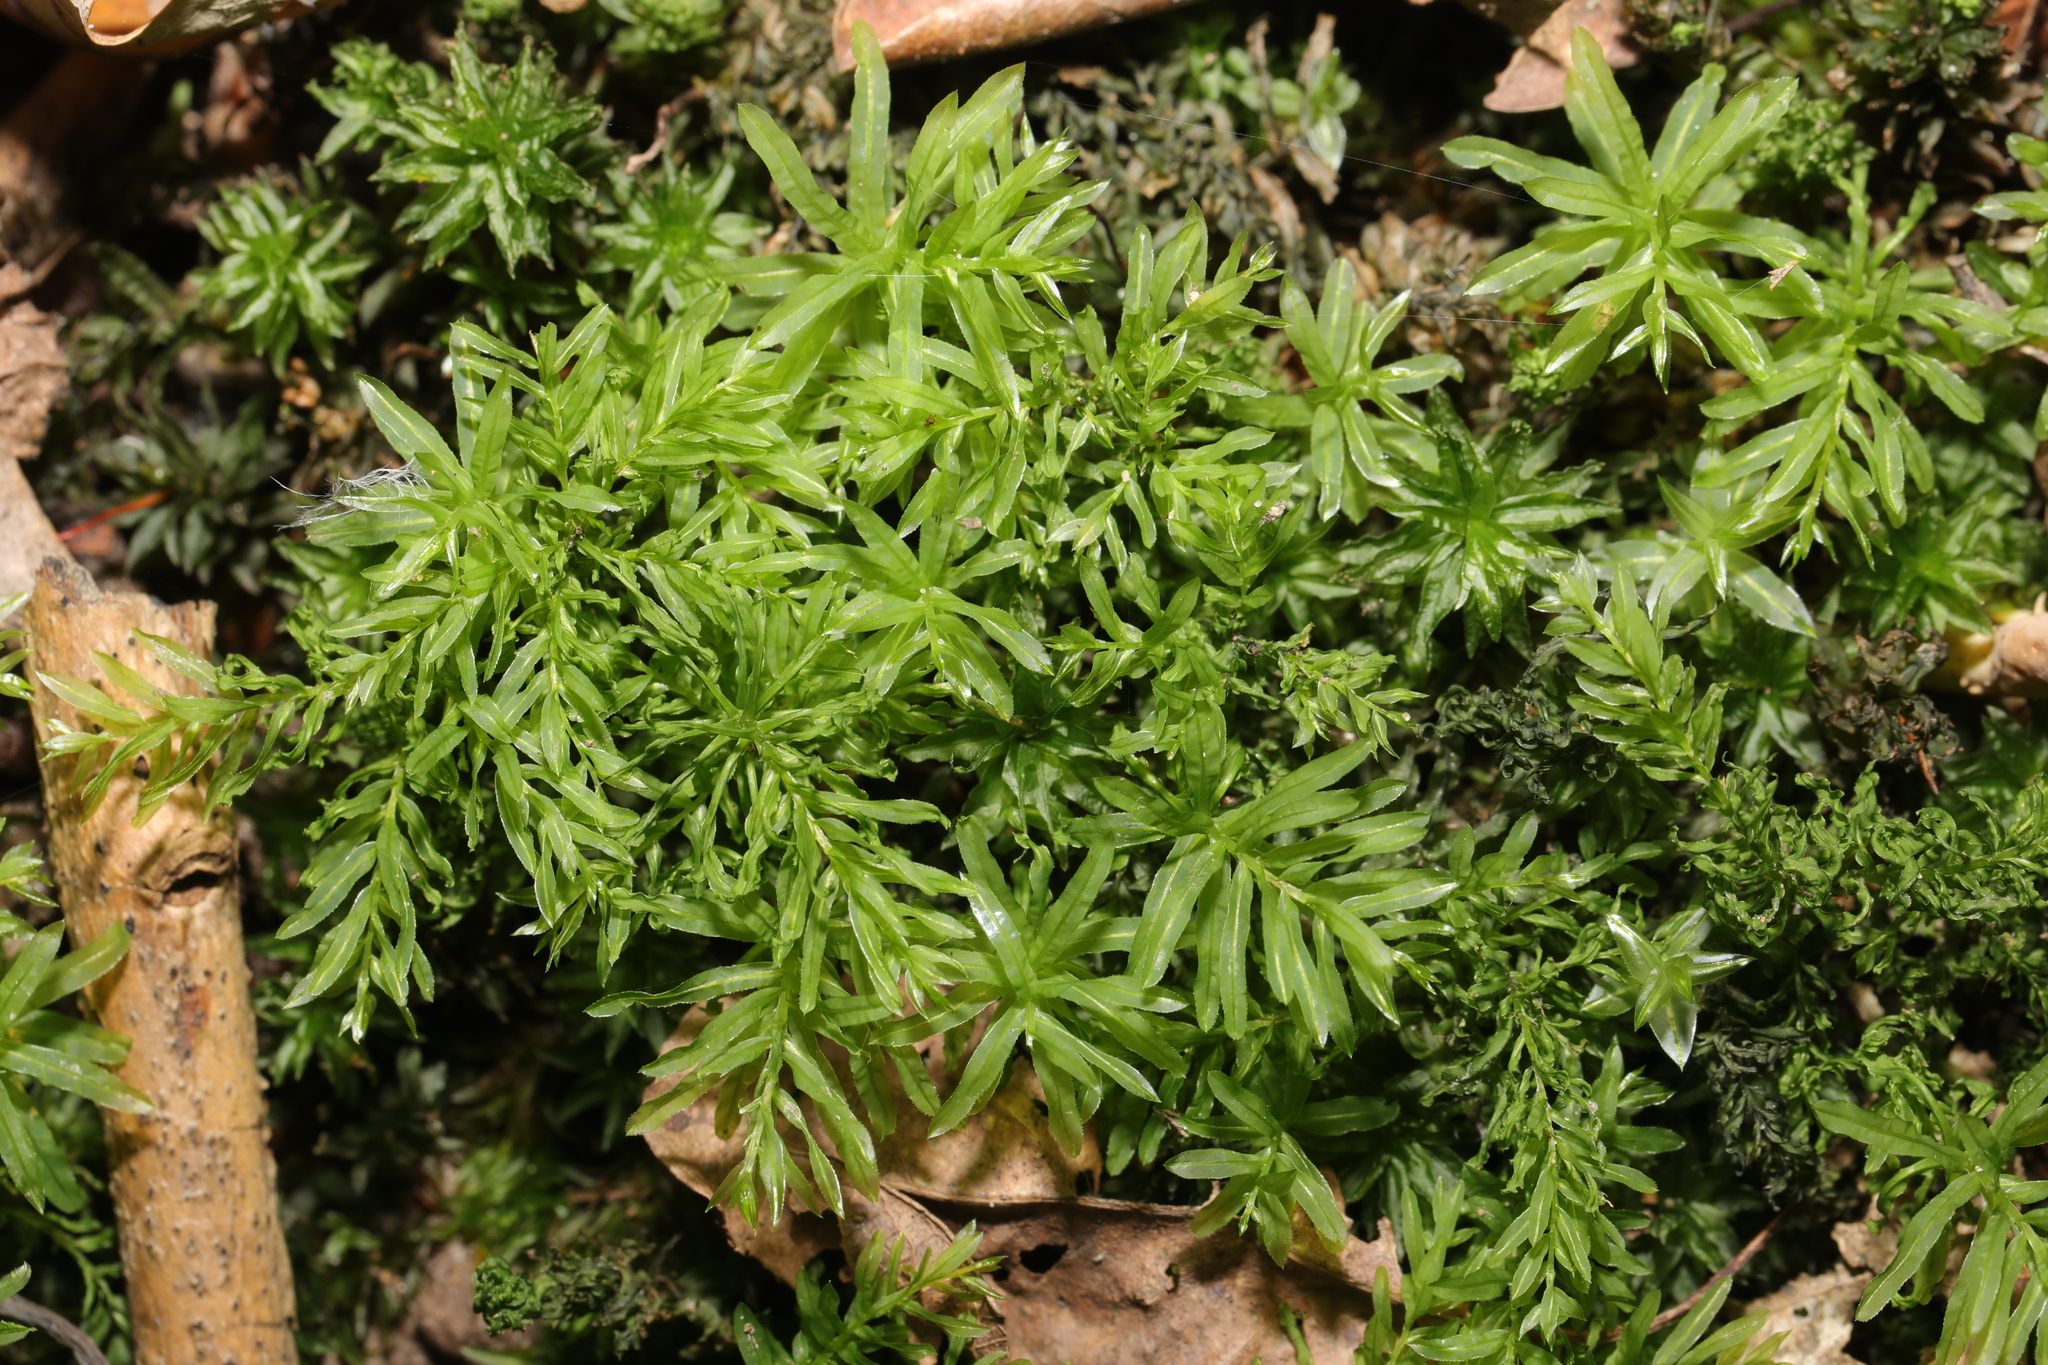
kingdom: Plantae
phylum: Bryophyta
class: Bryopsida
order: Bryales
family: Mniaceae
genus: Plagiomnium
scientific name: Plagiomnium undulatum
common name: Hart's-tongue thyme-moss
